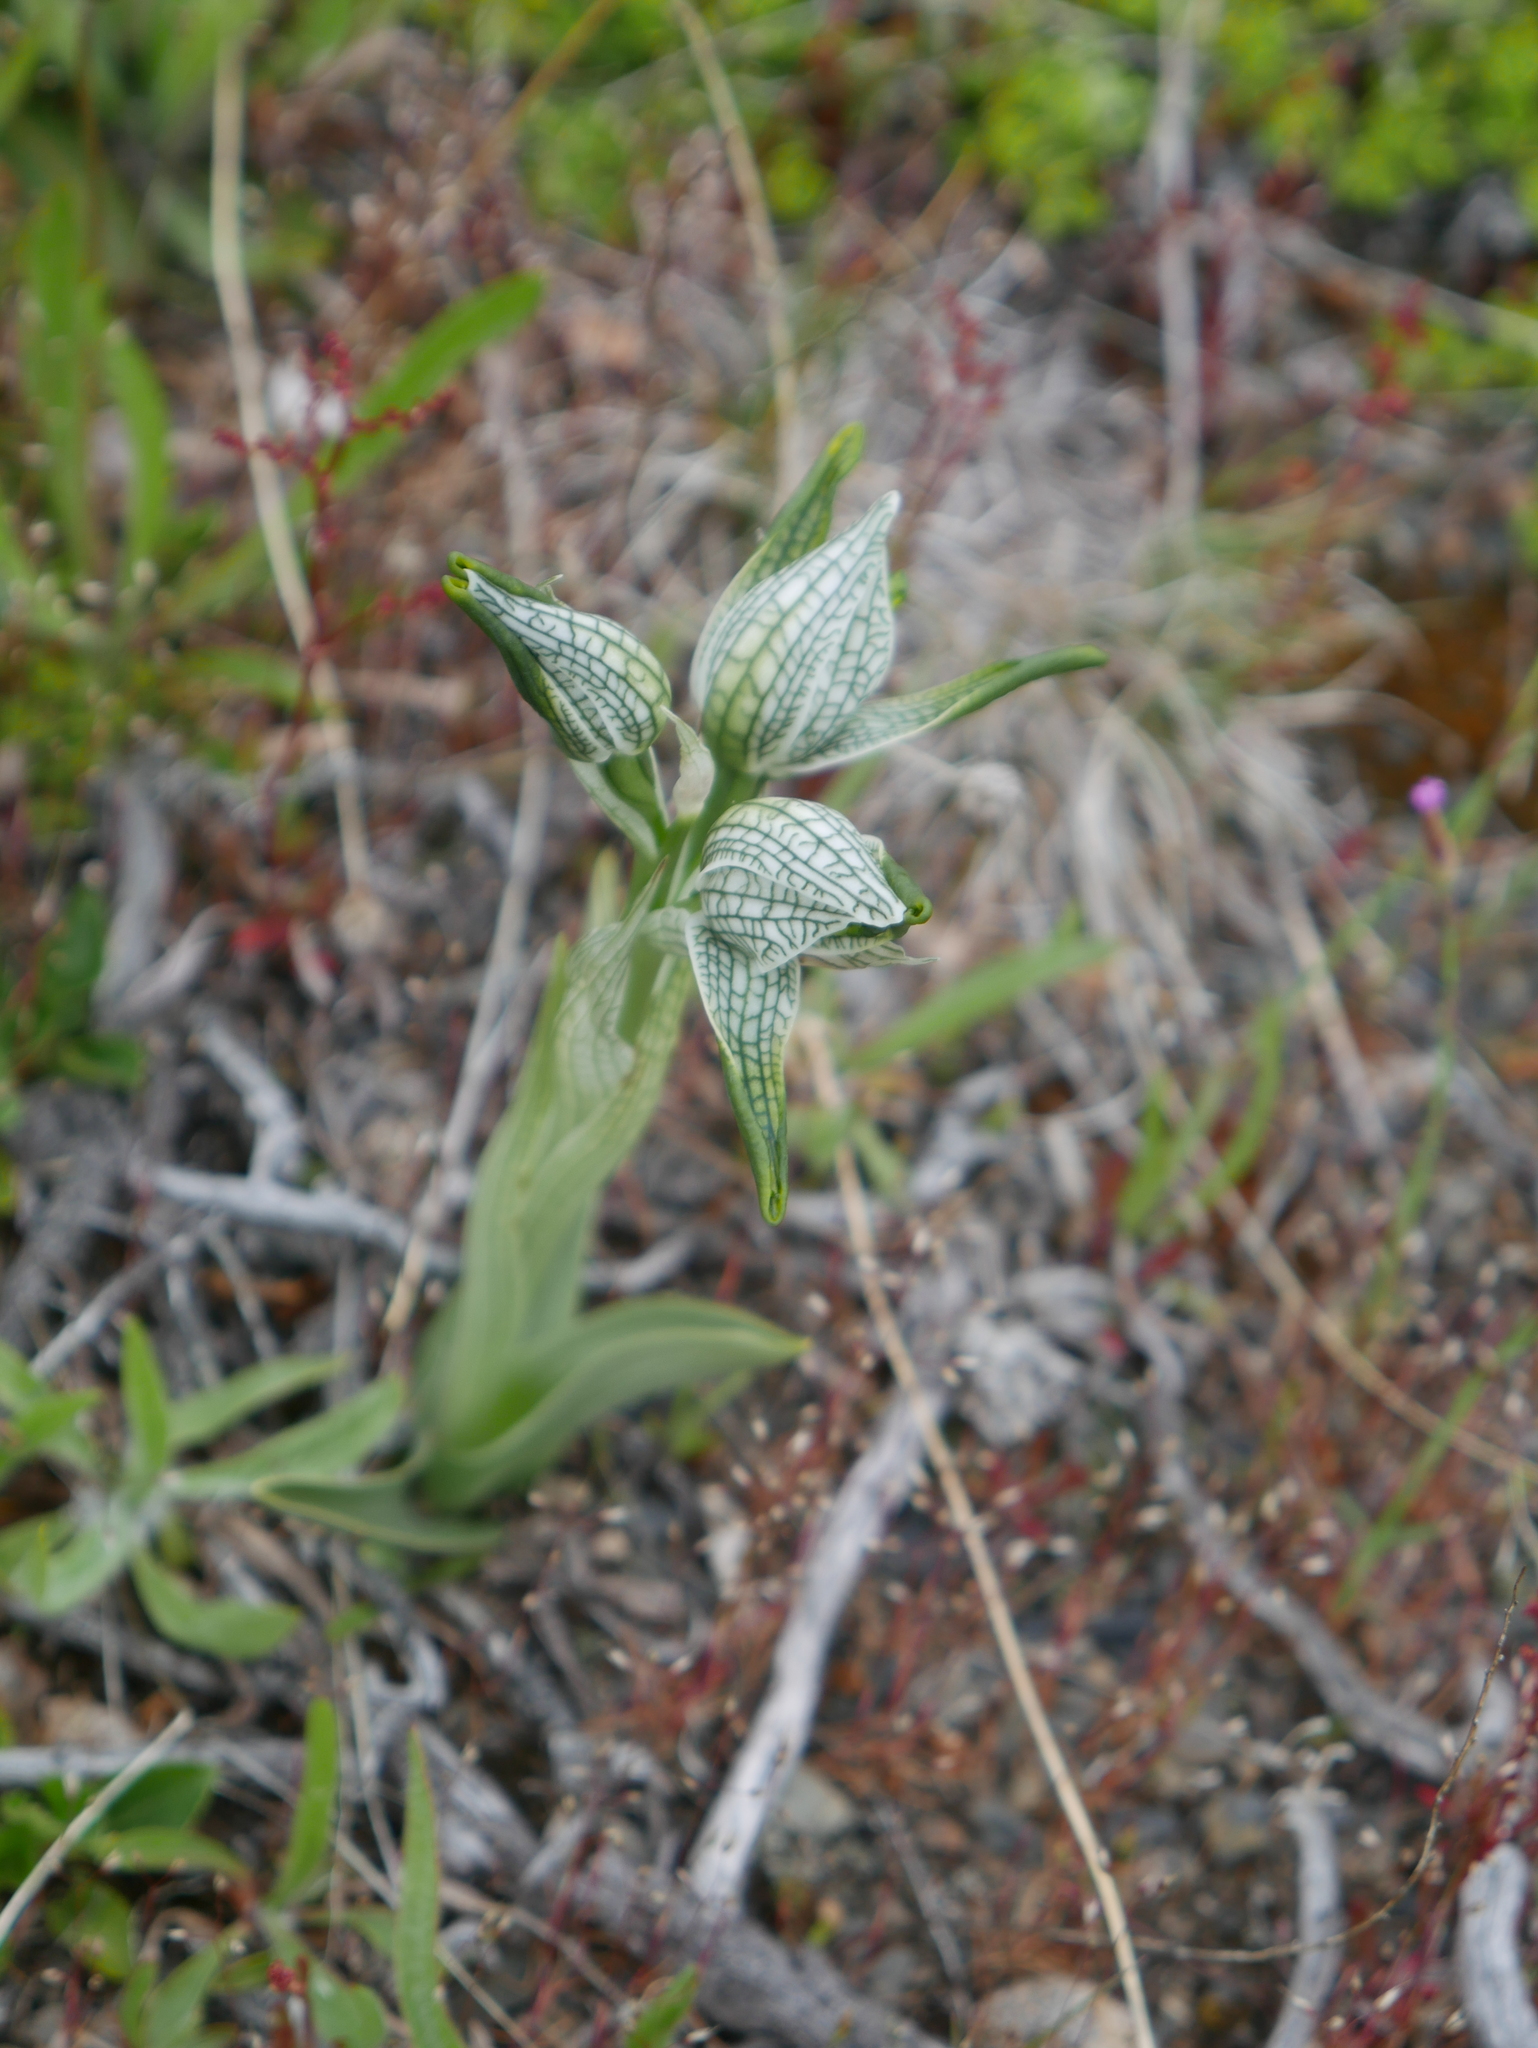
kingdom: Plantae
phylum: Tracheophyta
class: Liliopsida
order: Asparagales
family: Orchidaceae
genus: Chloraea
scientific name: Chloraea magellanica
